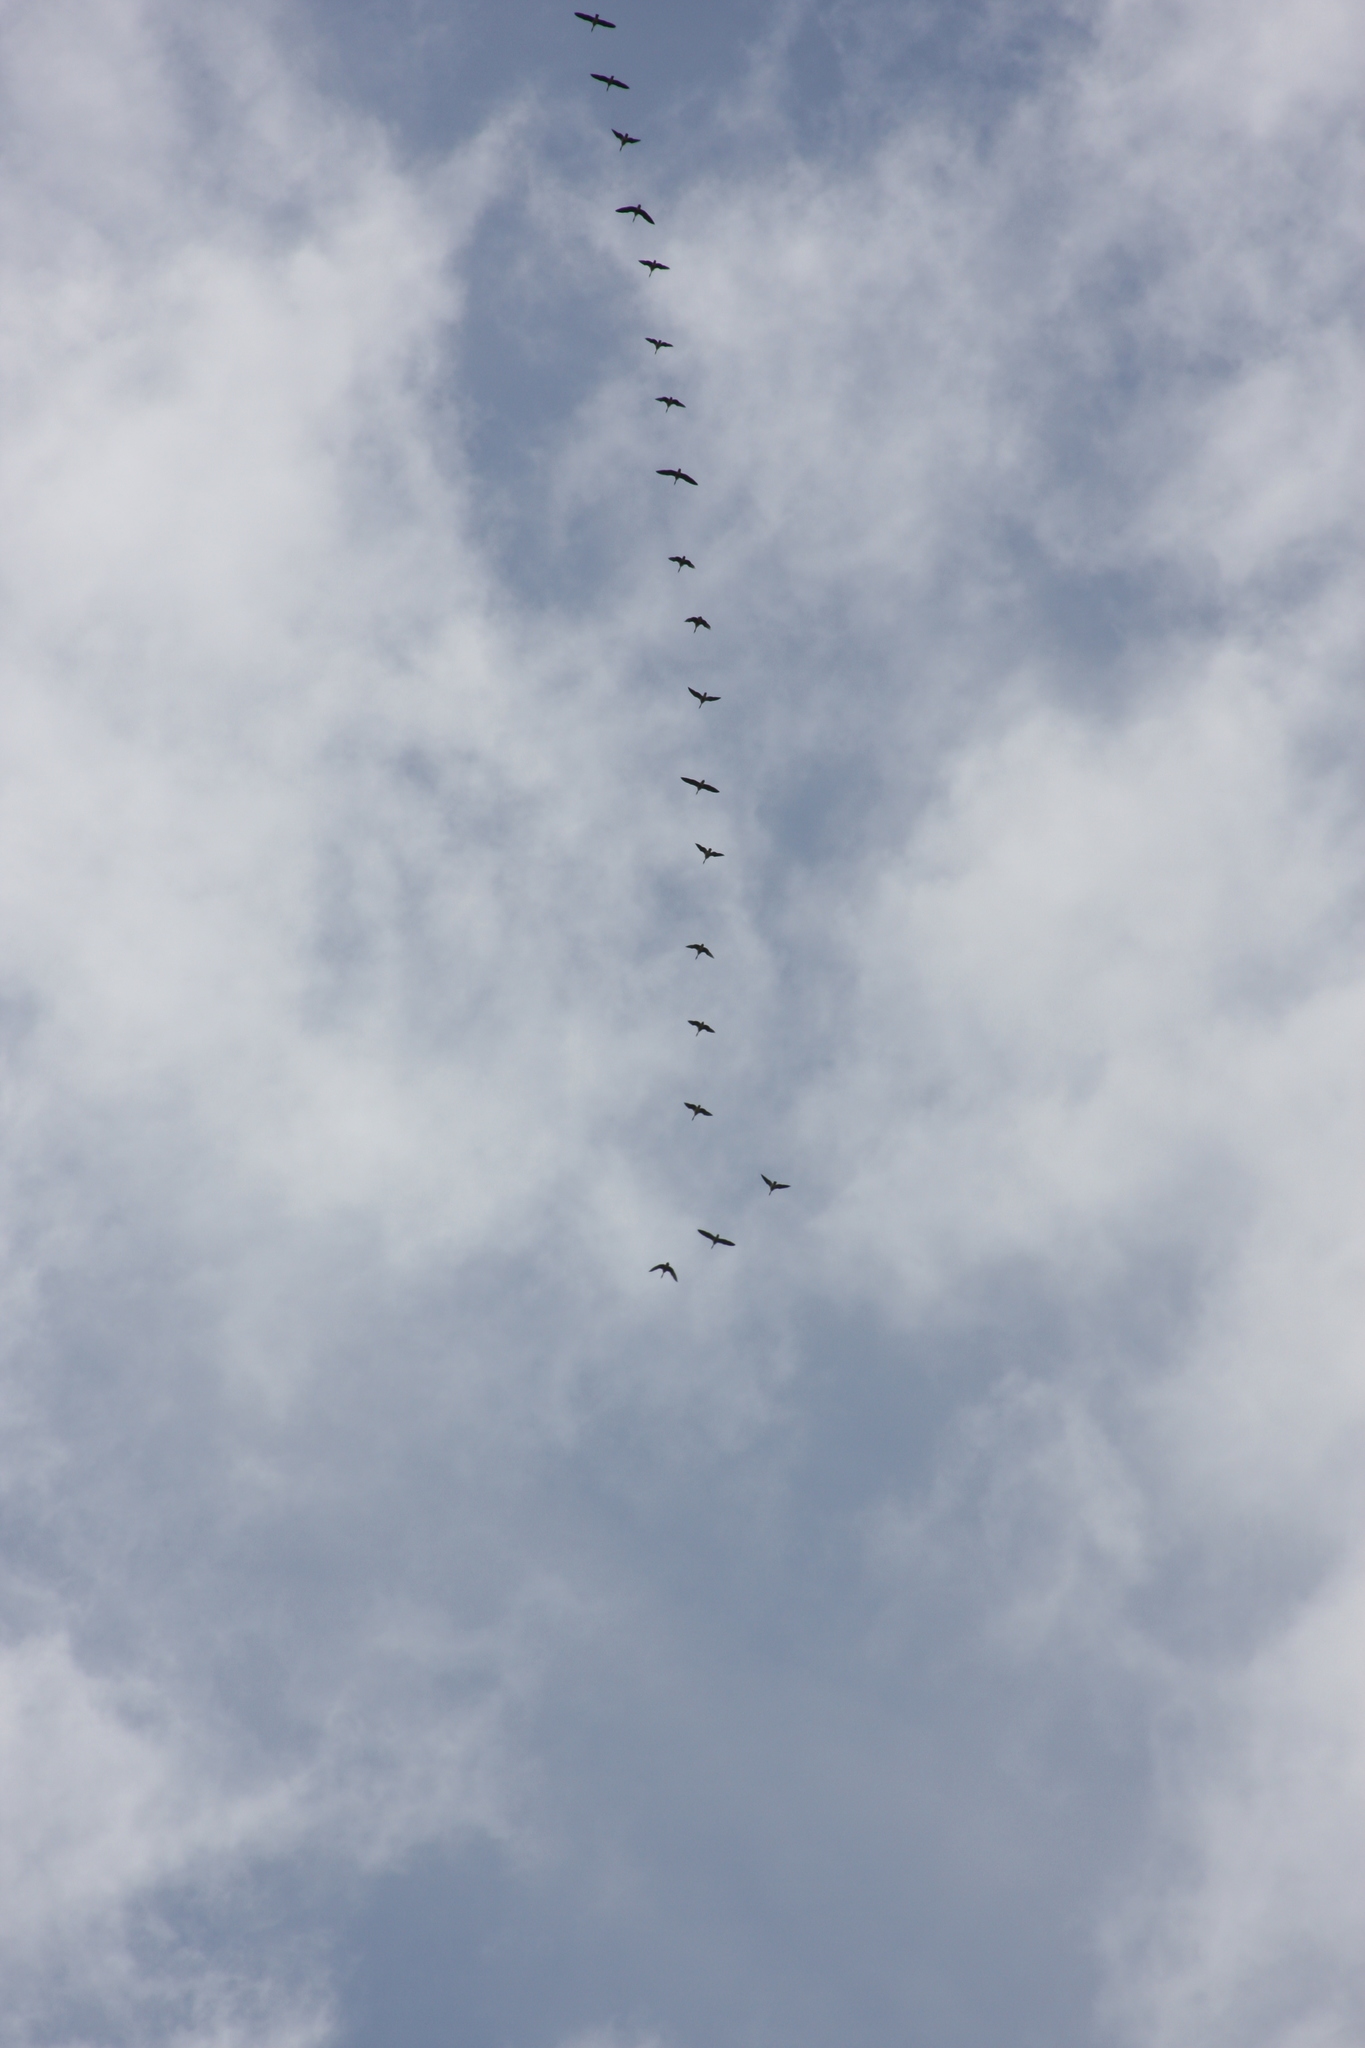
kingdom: Animalia
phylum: Chordata
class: Aves
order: Anseriformes
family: Anatidae
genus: Branta
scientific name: Branta canadensis
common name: Canada goose
